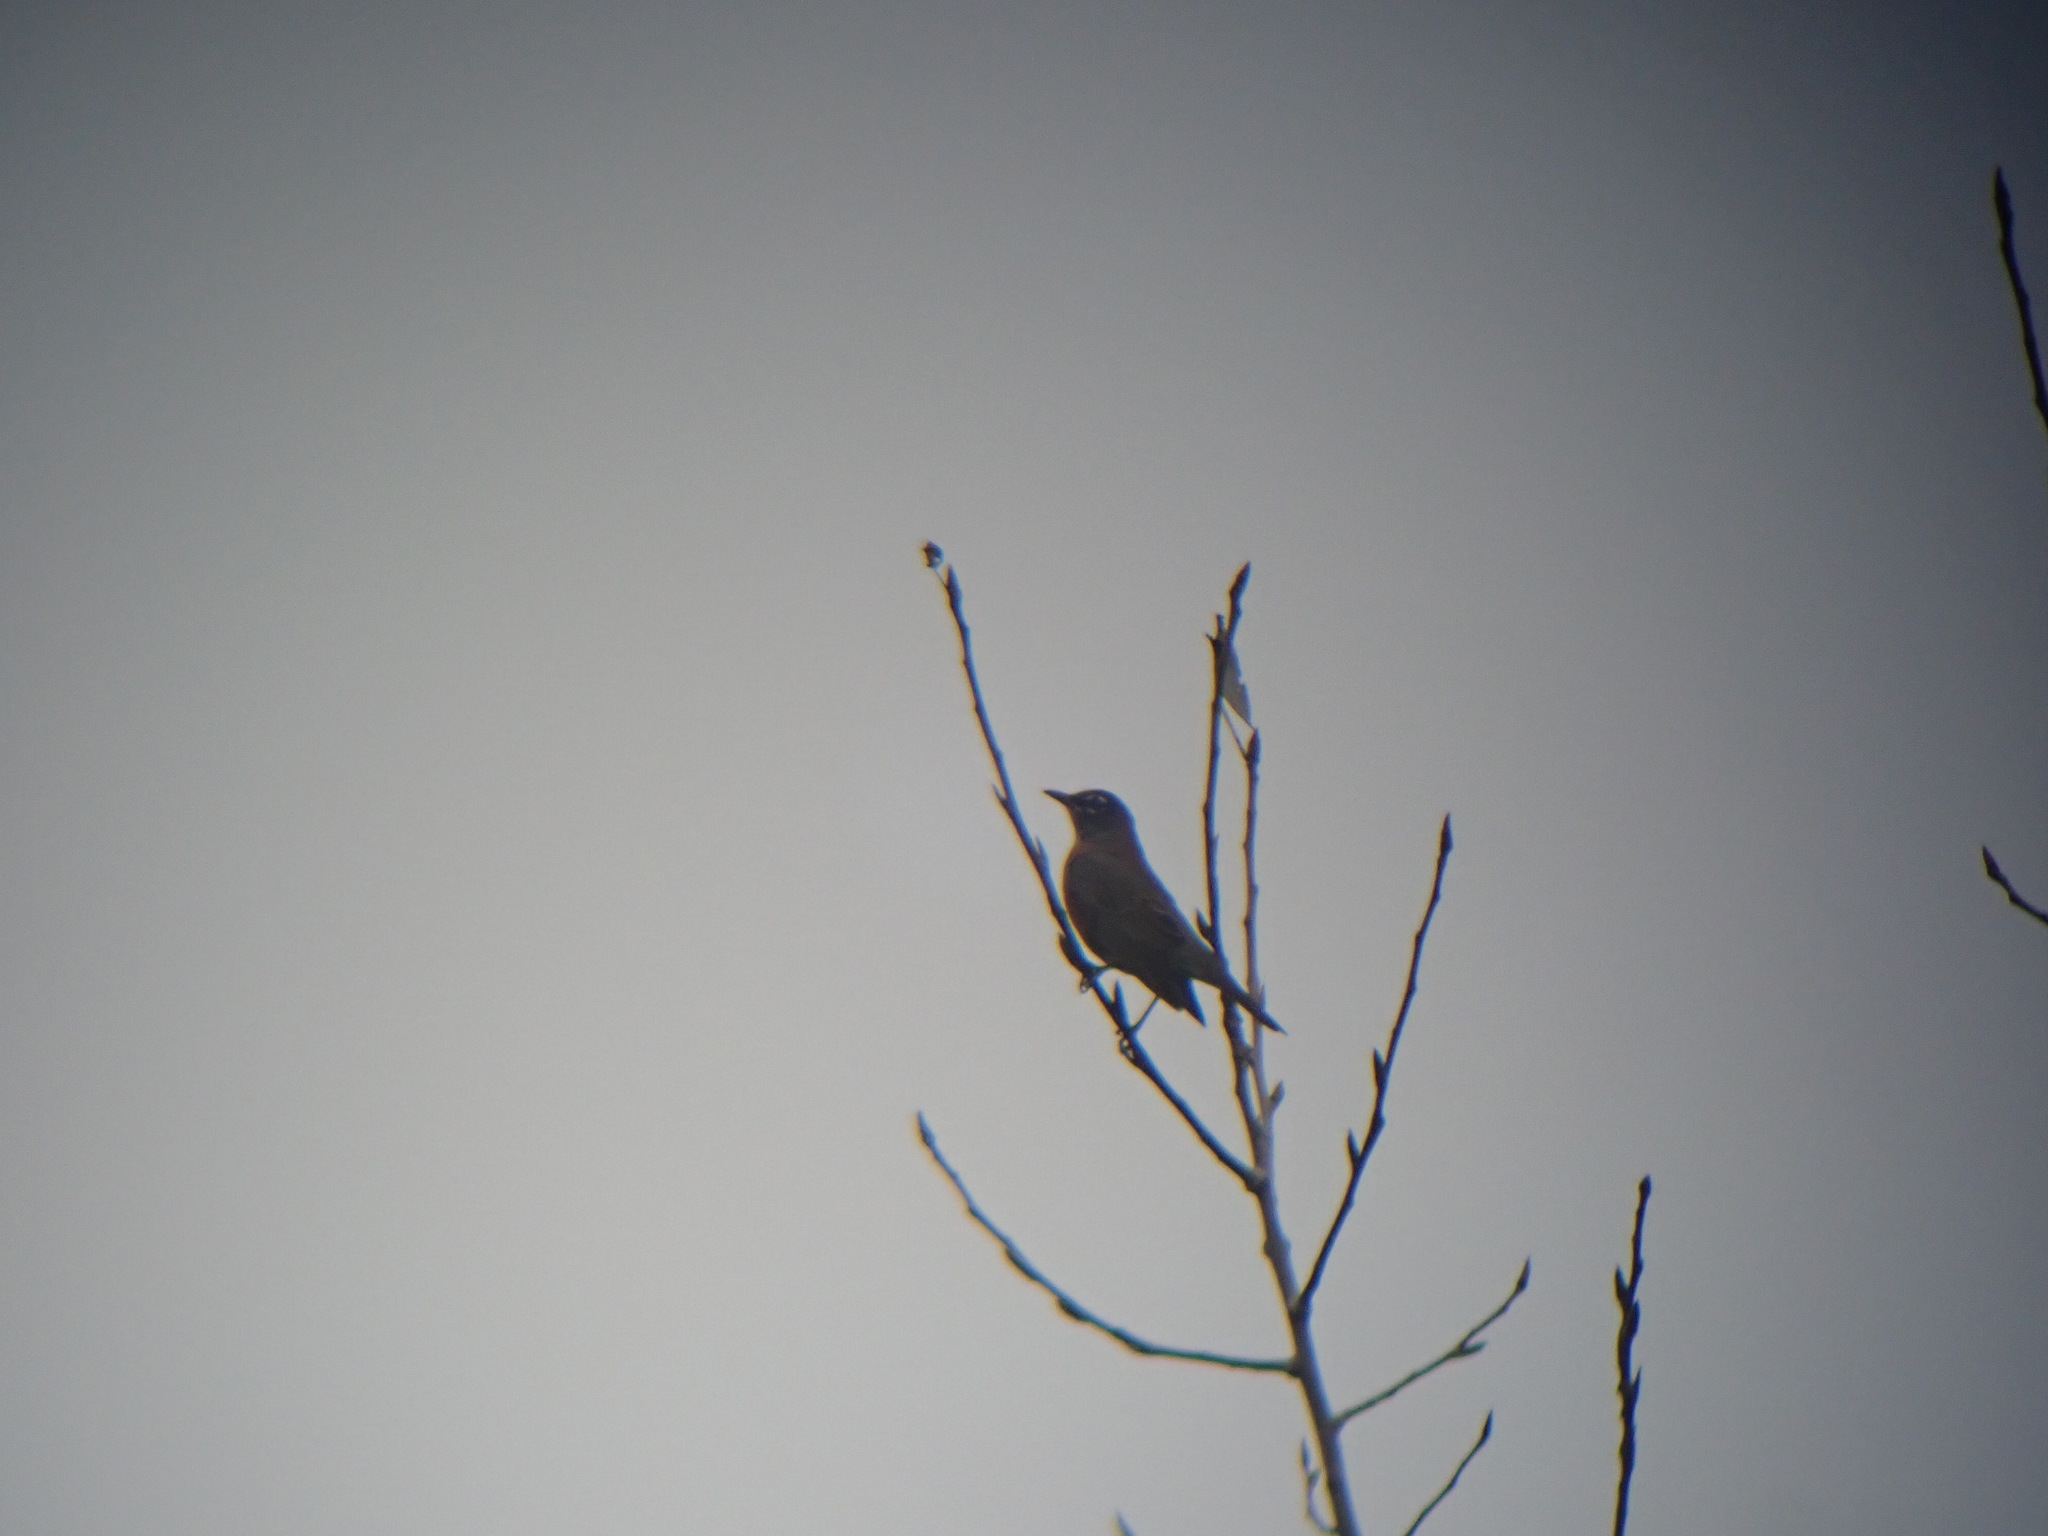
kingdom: Animalia
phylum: Chordata
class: Aves
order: Passeriformes
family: Turdidae
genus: Turdus
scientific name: Turdus migratorius
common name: American robin
